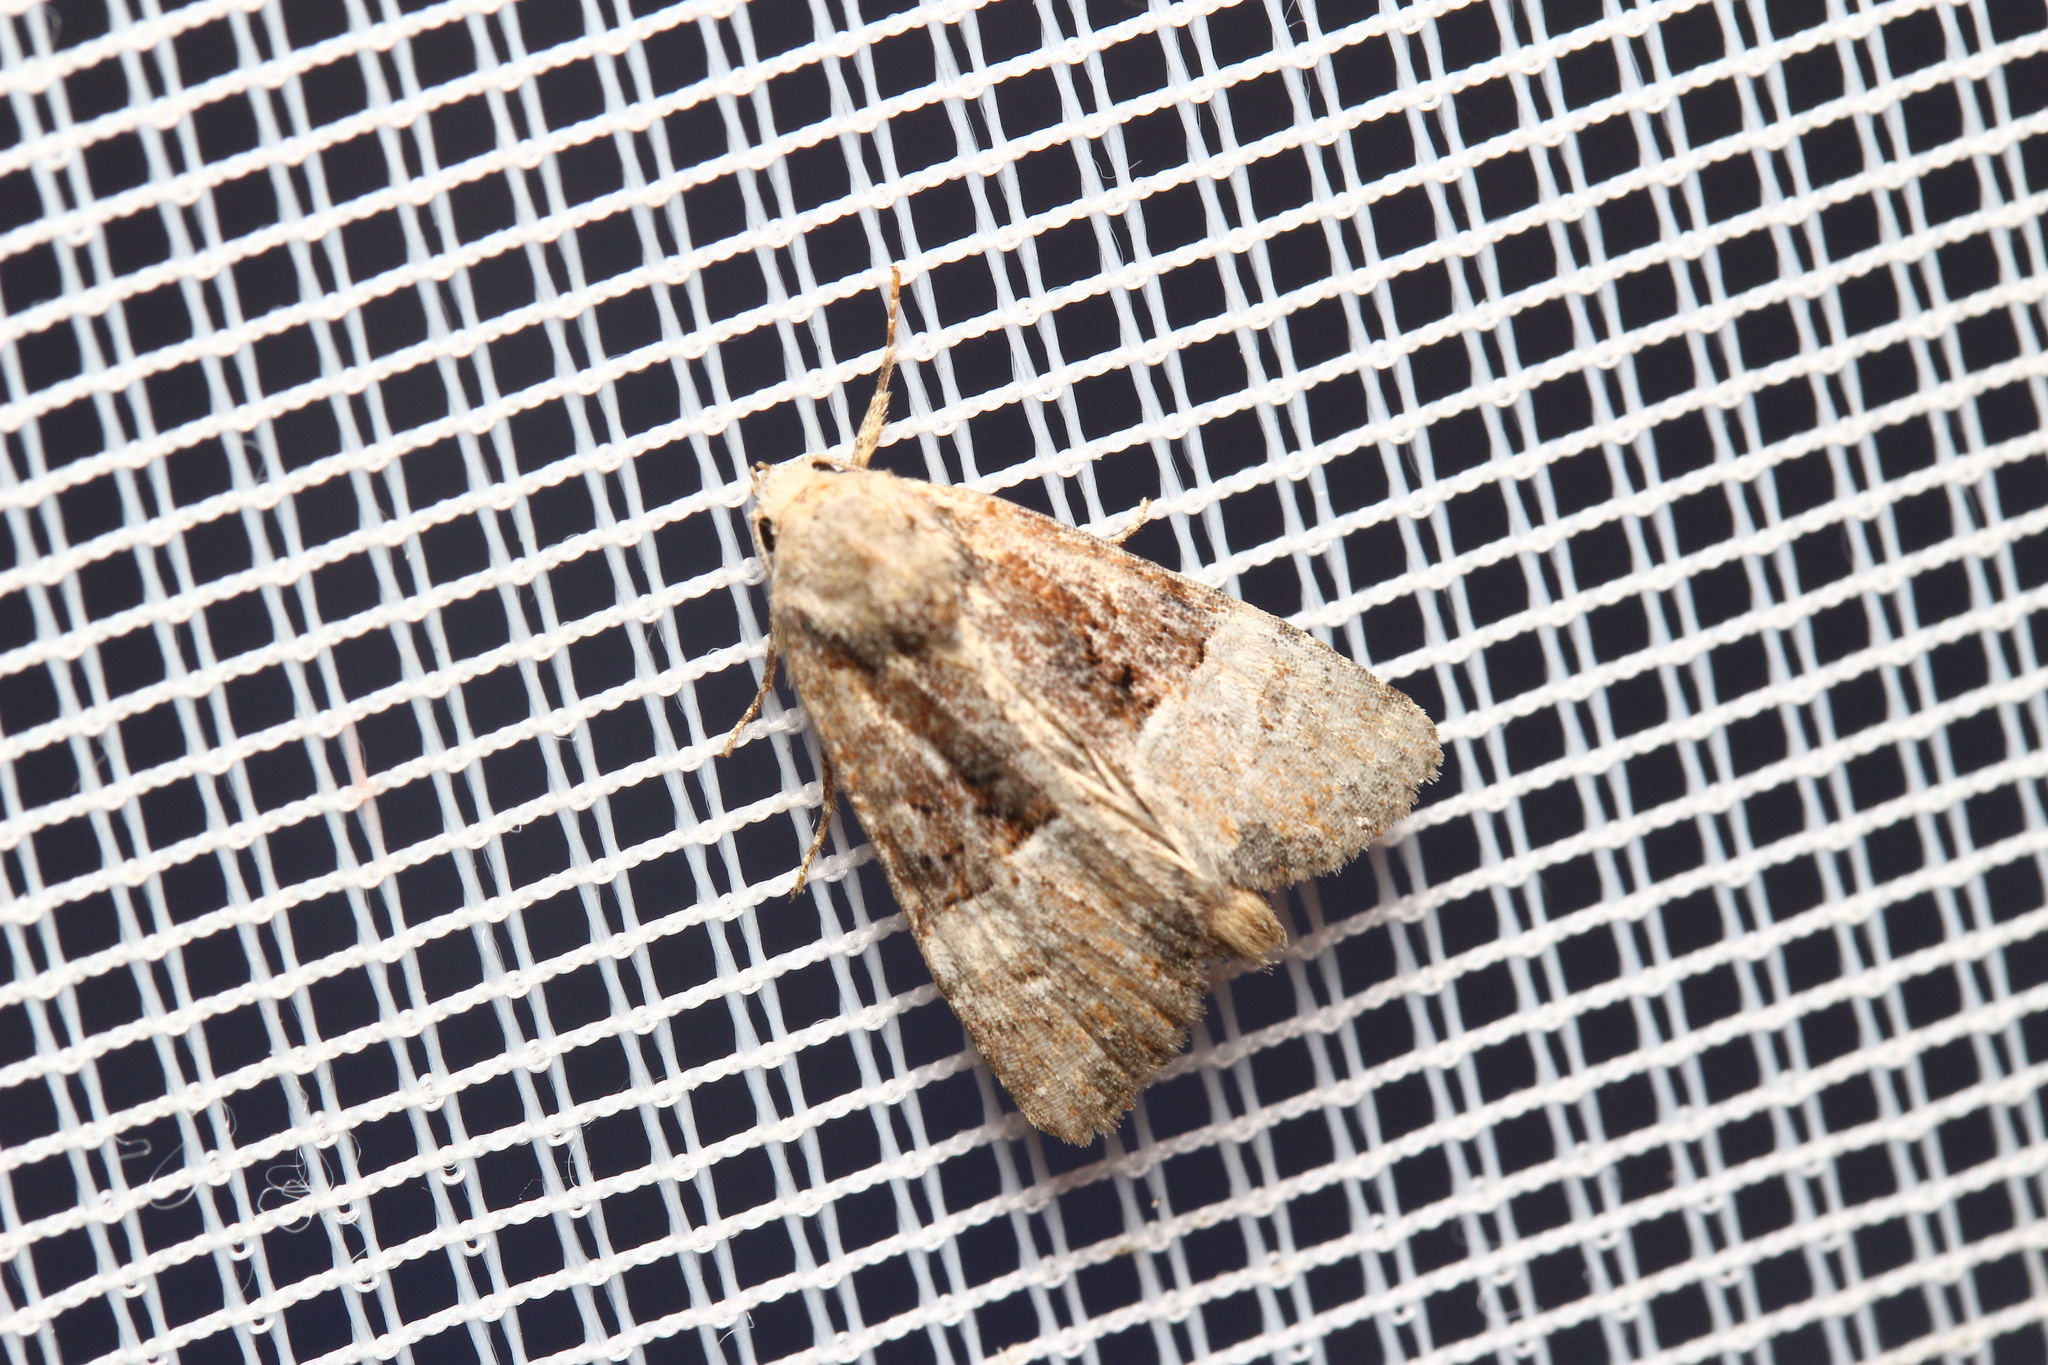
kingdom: Animalia
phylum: Arthropoda
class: Insecta
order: Lepidoptera
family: Noctuidae
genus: Mesoligia
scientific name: Mesoligia furuncula
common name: Cloaked minor
